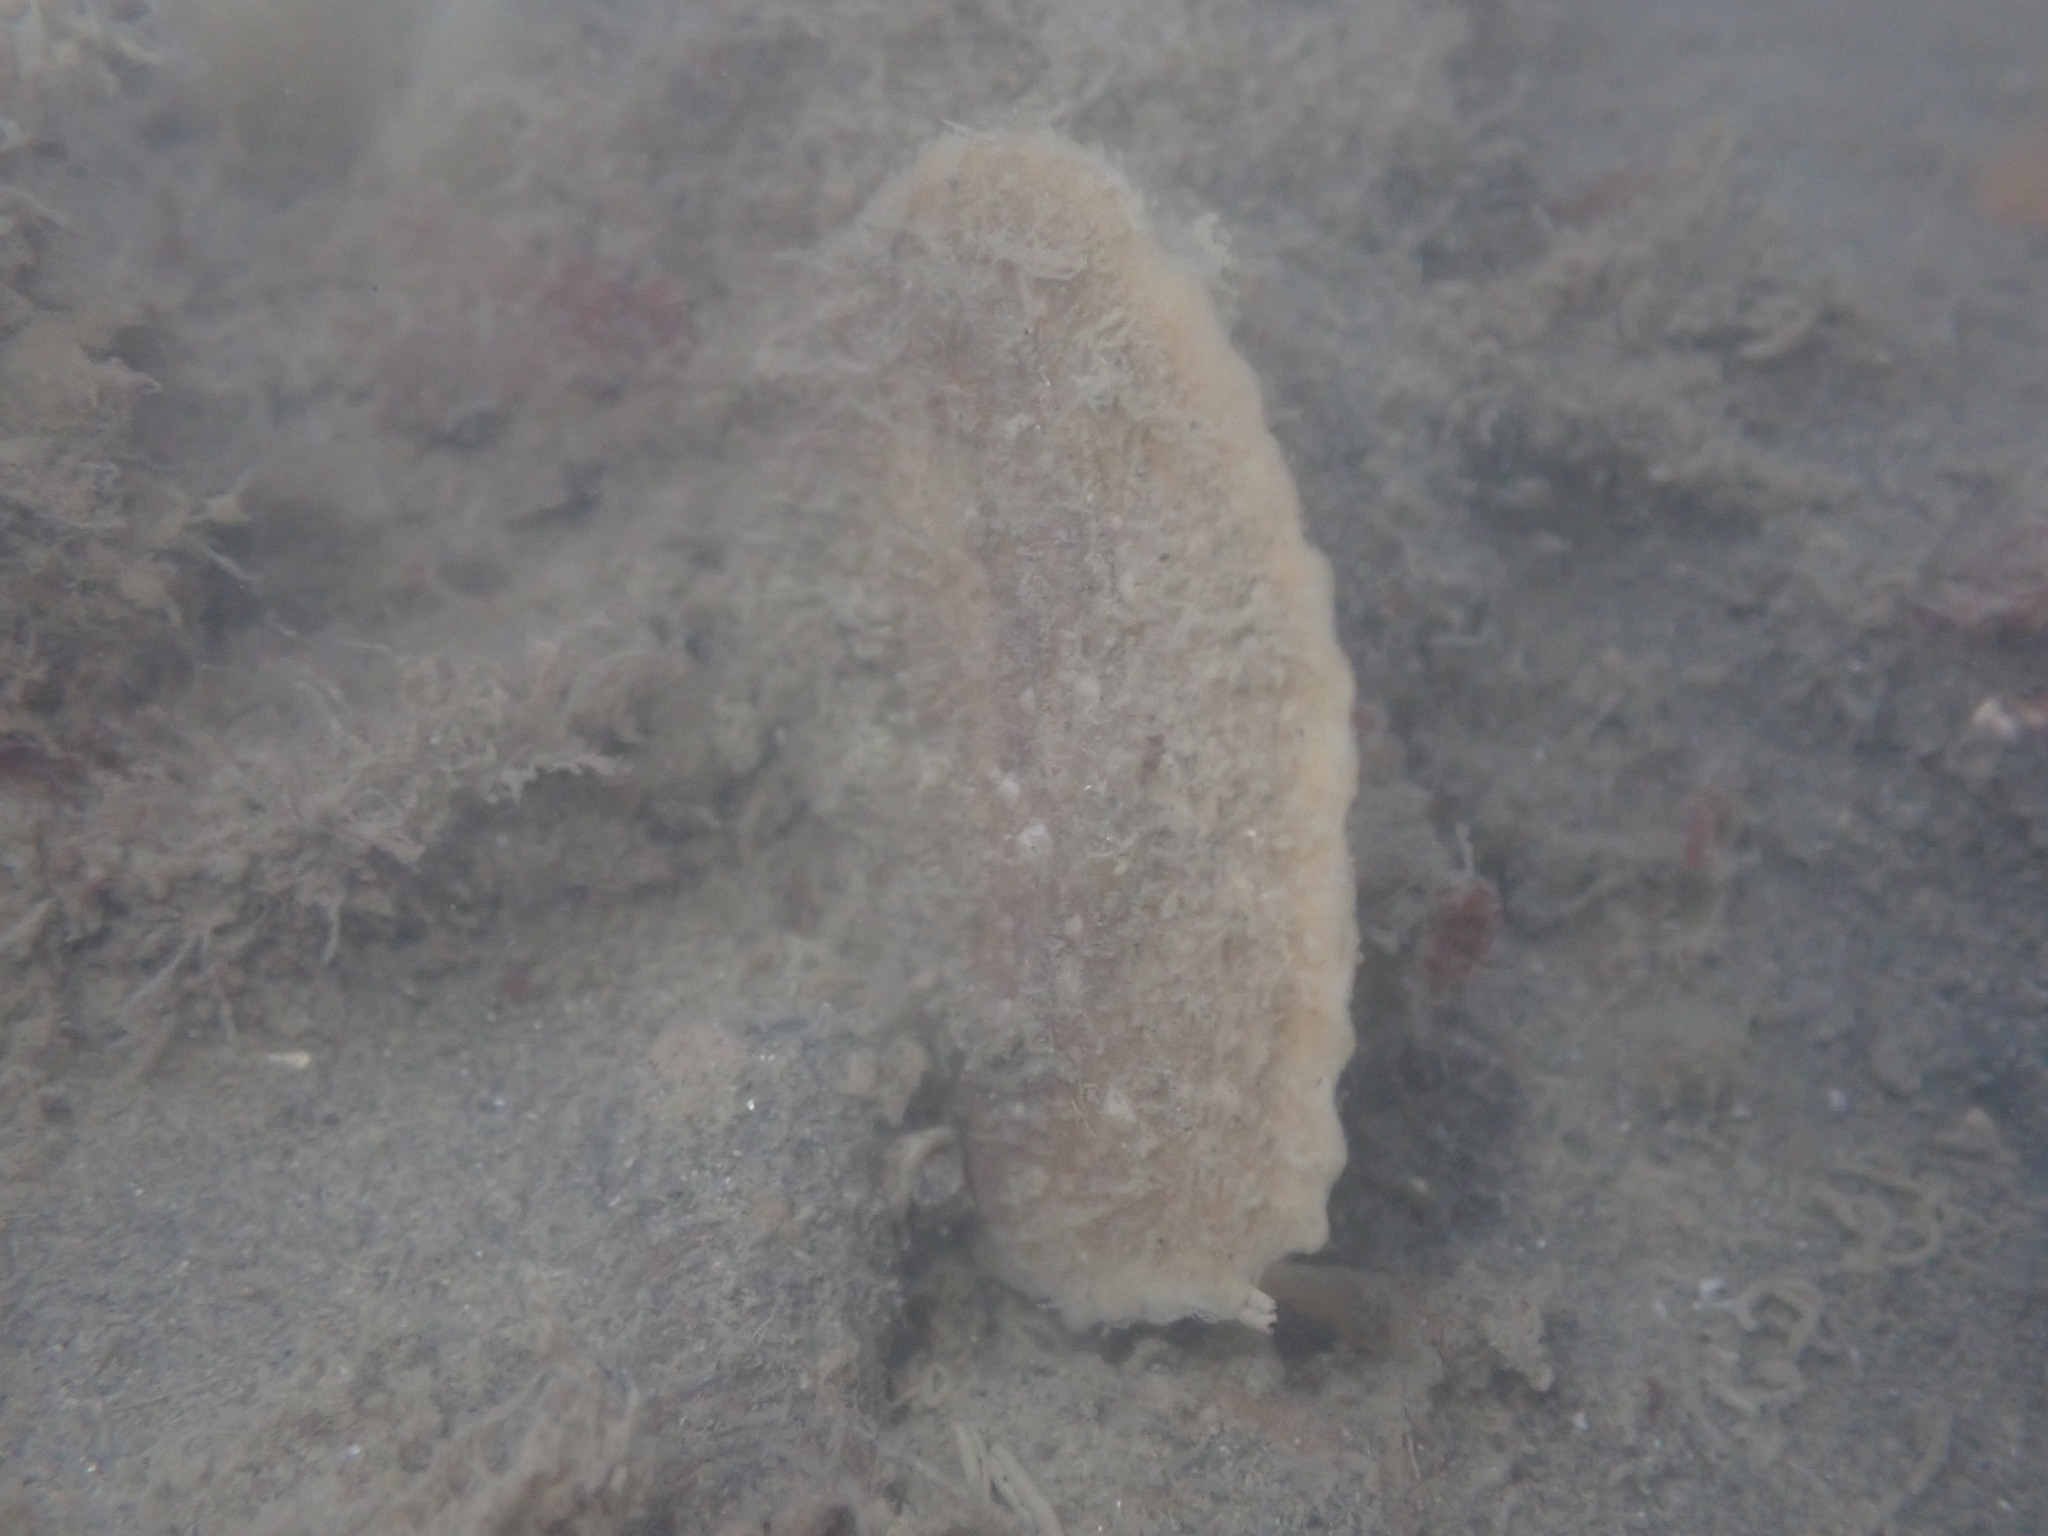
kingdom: Animalia
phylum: Mollusca
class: Bivalvia
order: Ostreida
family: Ostreidae
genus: Ostrea
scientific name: Ostrea chilensis
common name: Chilean oyster
